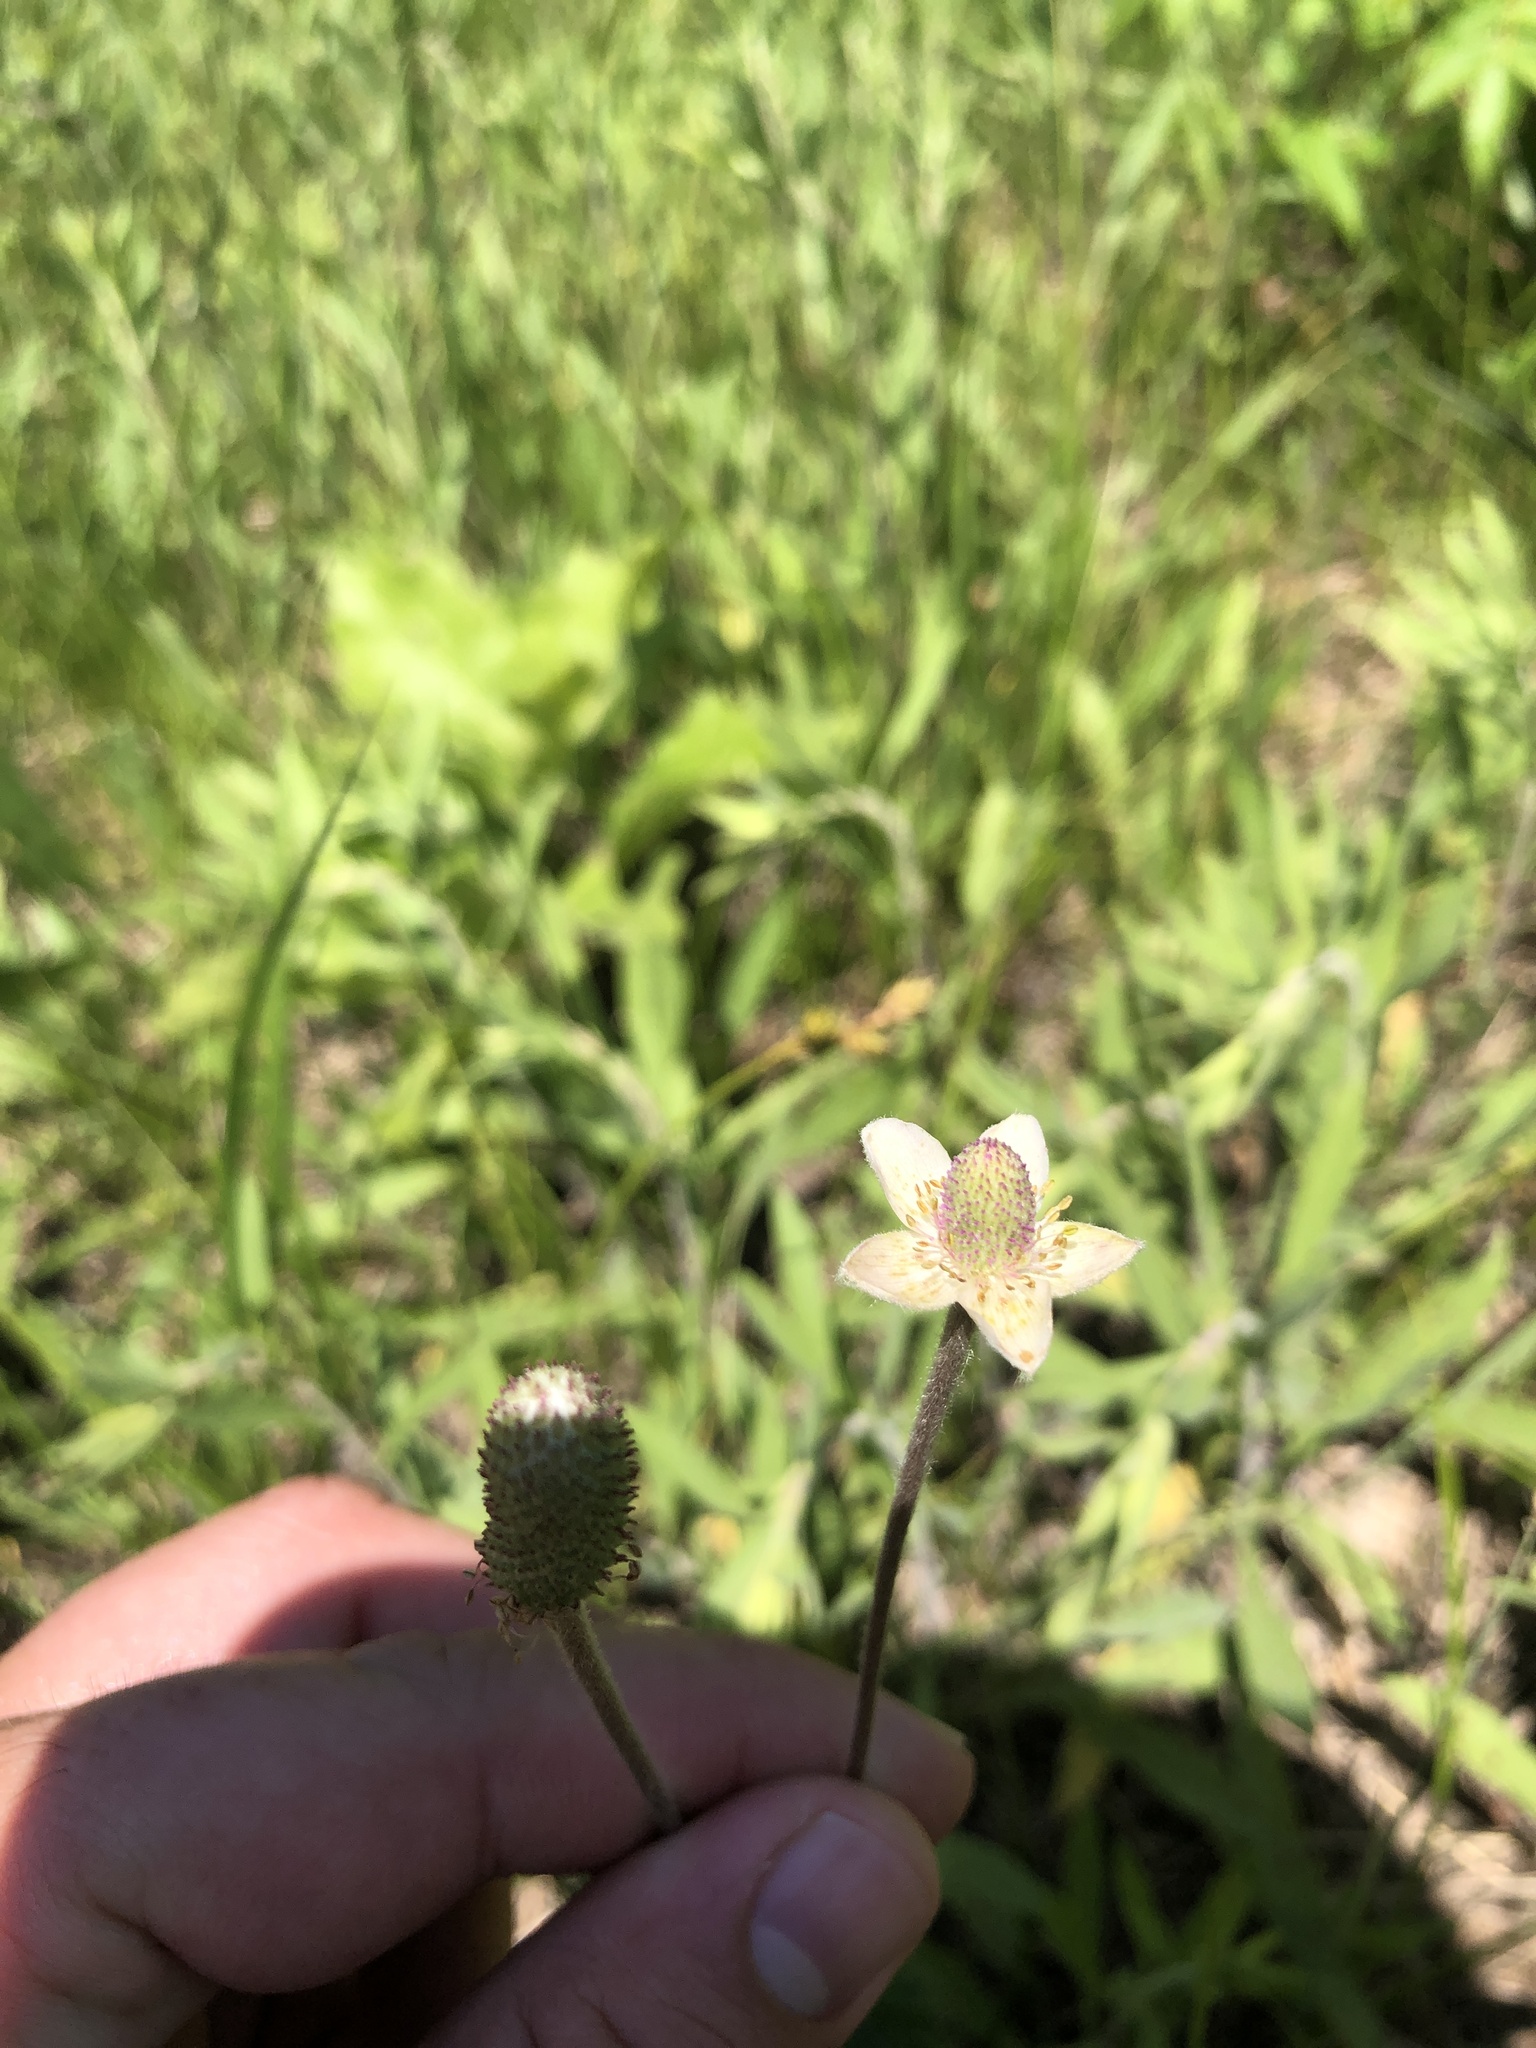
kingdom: Plantae
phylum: Tracheophyta
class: Magnoliopsida
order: Ranunculales
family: Ranunculaceae
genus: Anemone
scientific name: Anemone cylindrica
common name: Candle anemone
